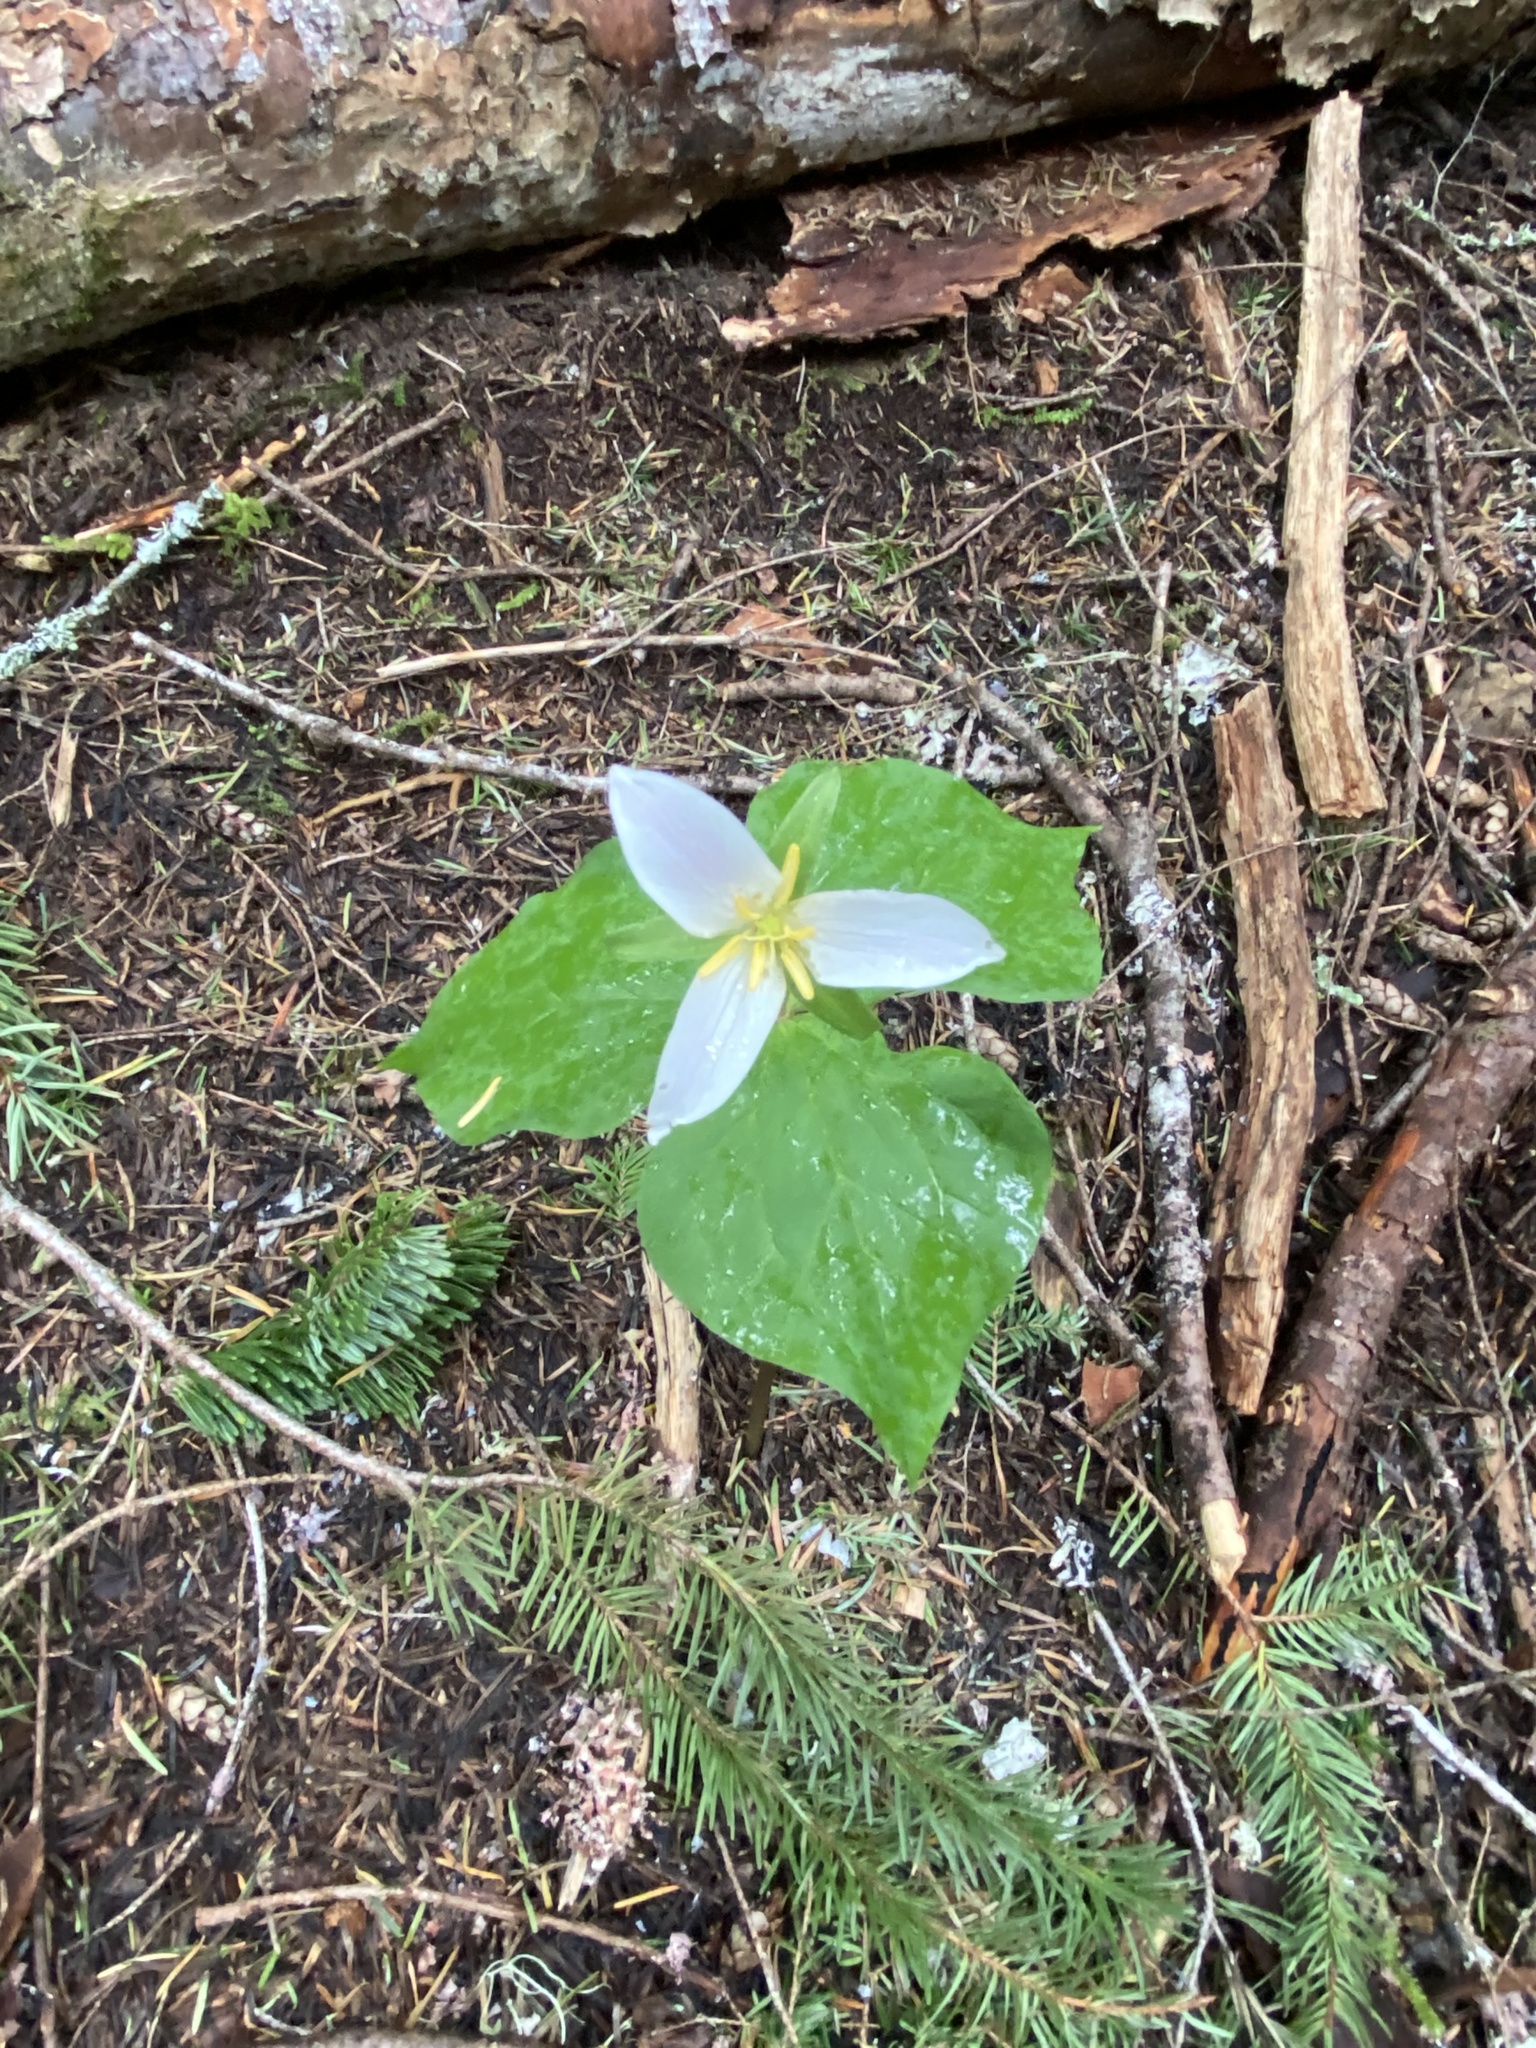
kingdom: Plantae
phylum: Tracheophyta
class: Liliopsida
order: Liliales
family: Melanthiaceae
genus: Trillium
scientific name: Trillium ovatum
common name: Pacific trillium
